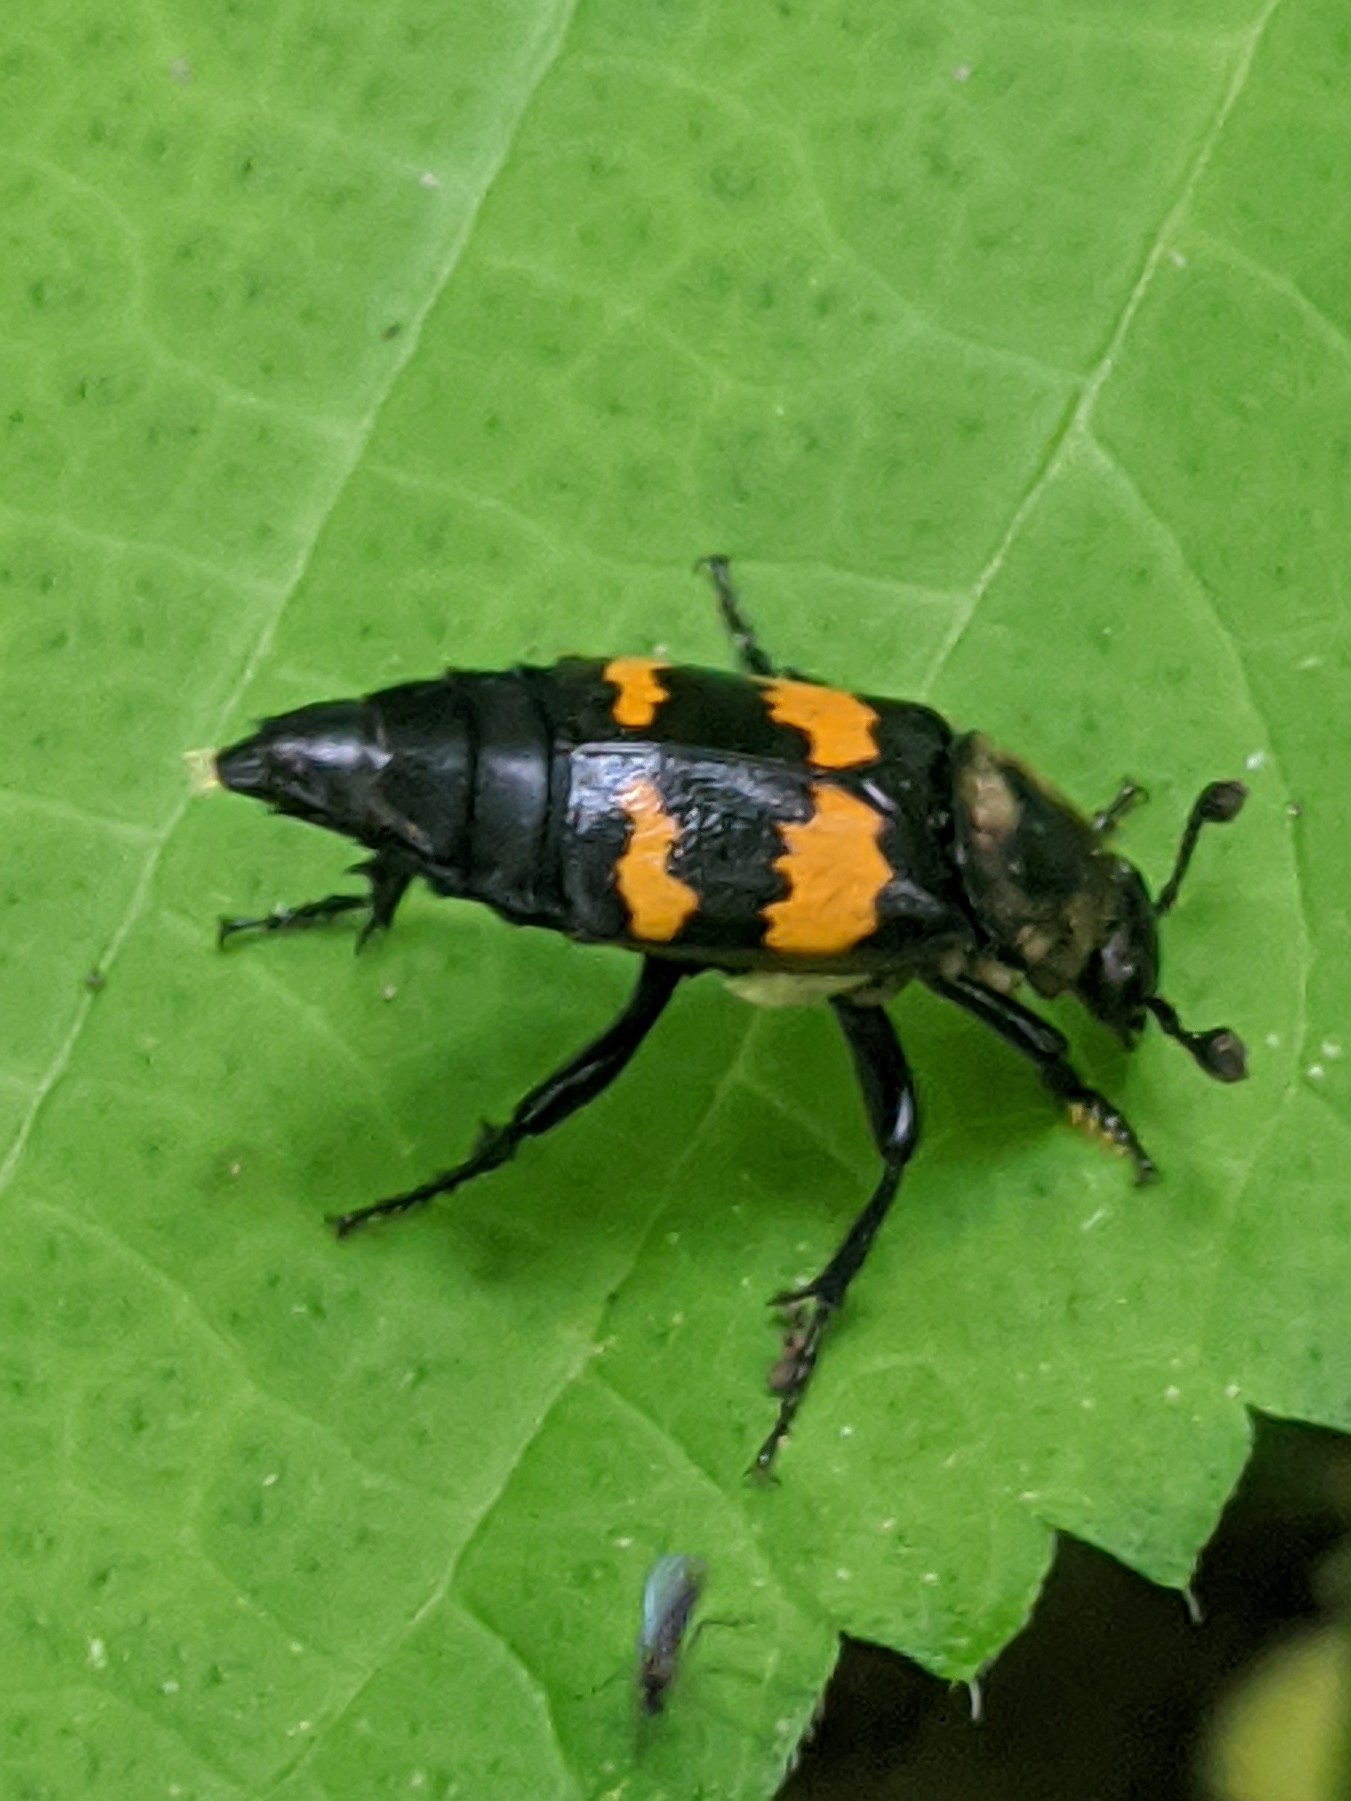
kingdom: Animalia
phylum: Arthropoda
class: Insecta
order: Coleoptera
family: Staphylinidae
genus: Nicrophorus
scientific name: Nicrophorus tomentosus
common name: Tomentose burying beetle
